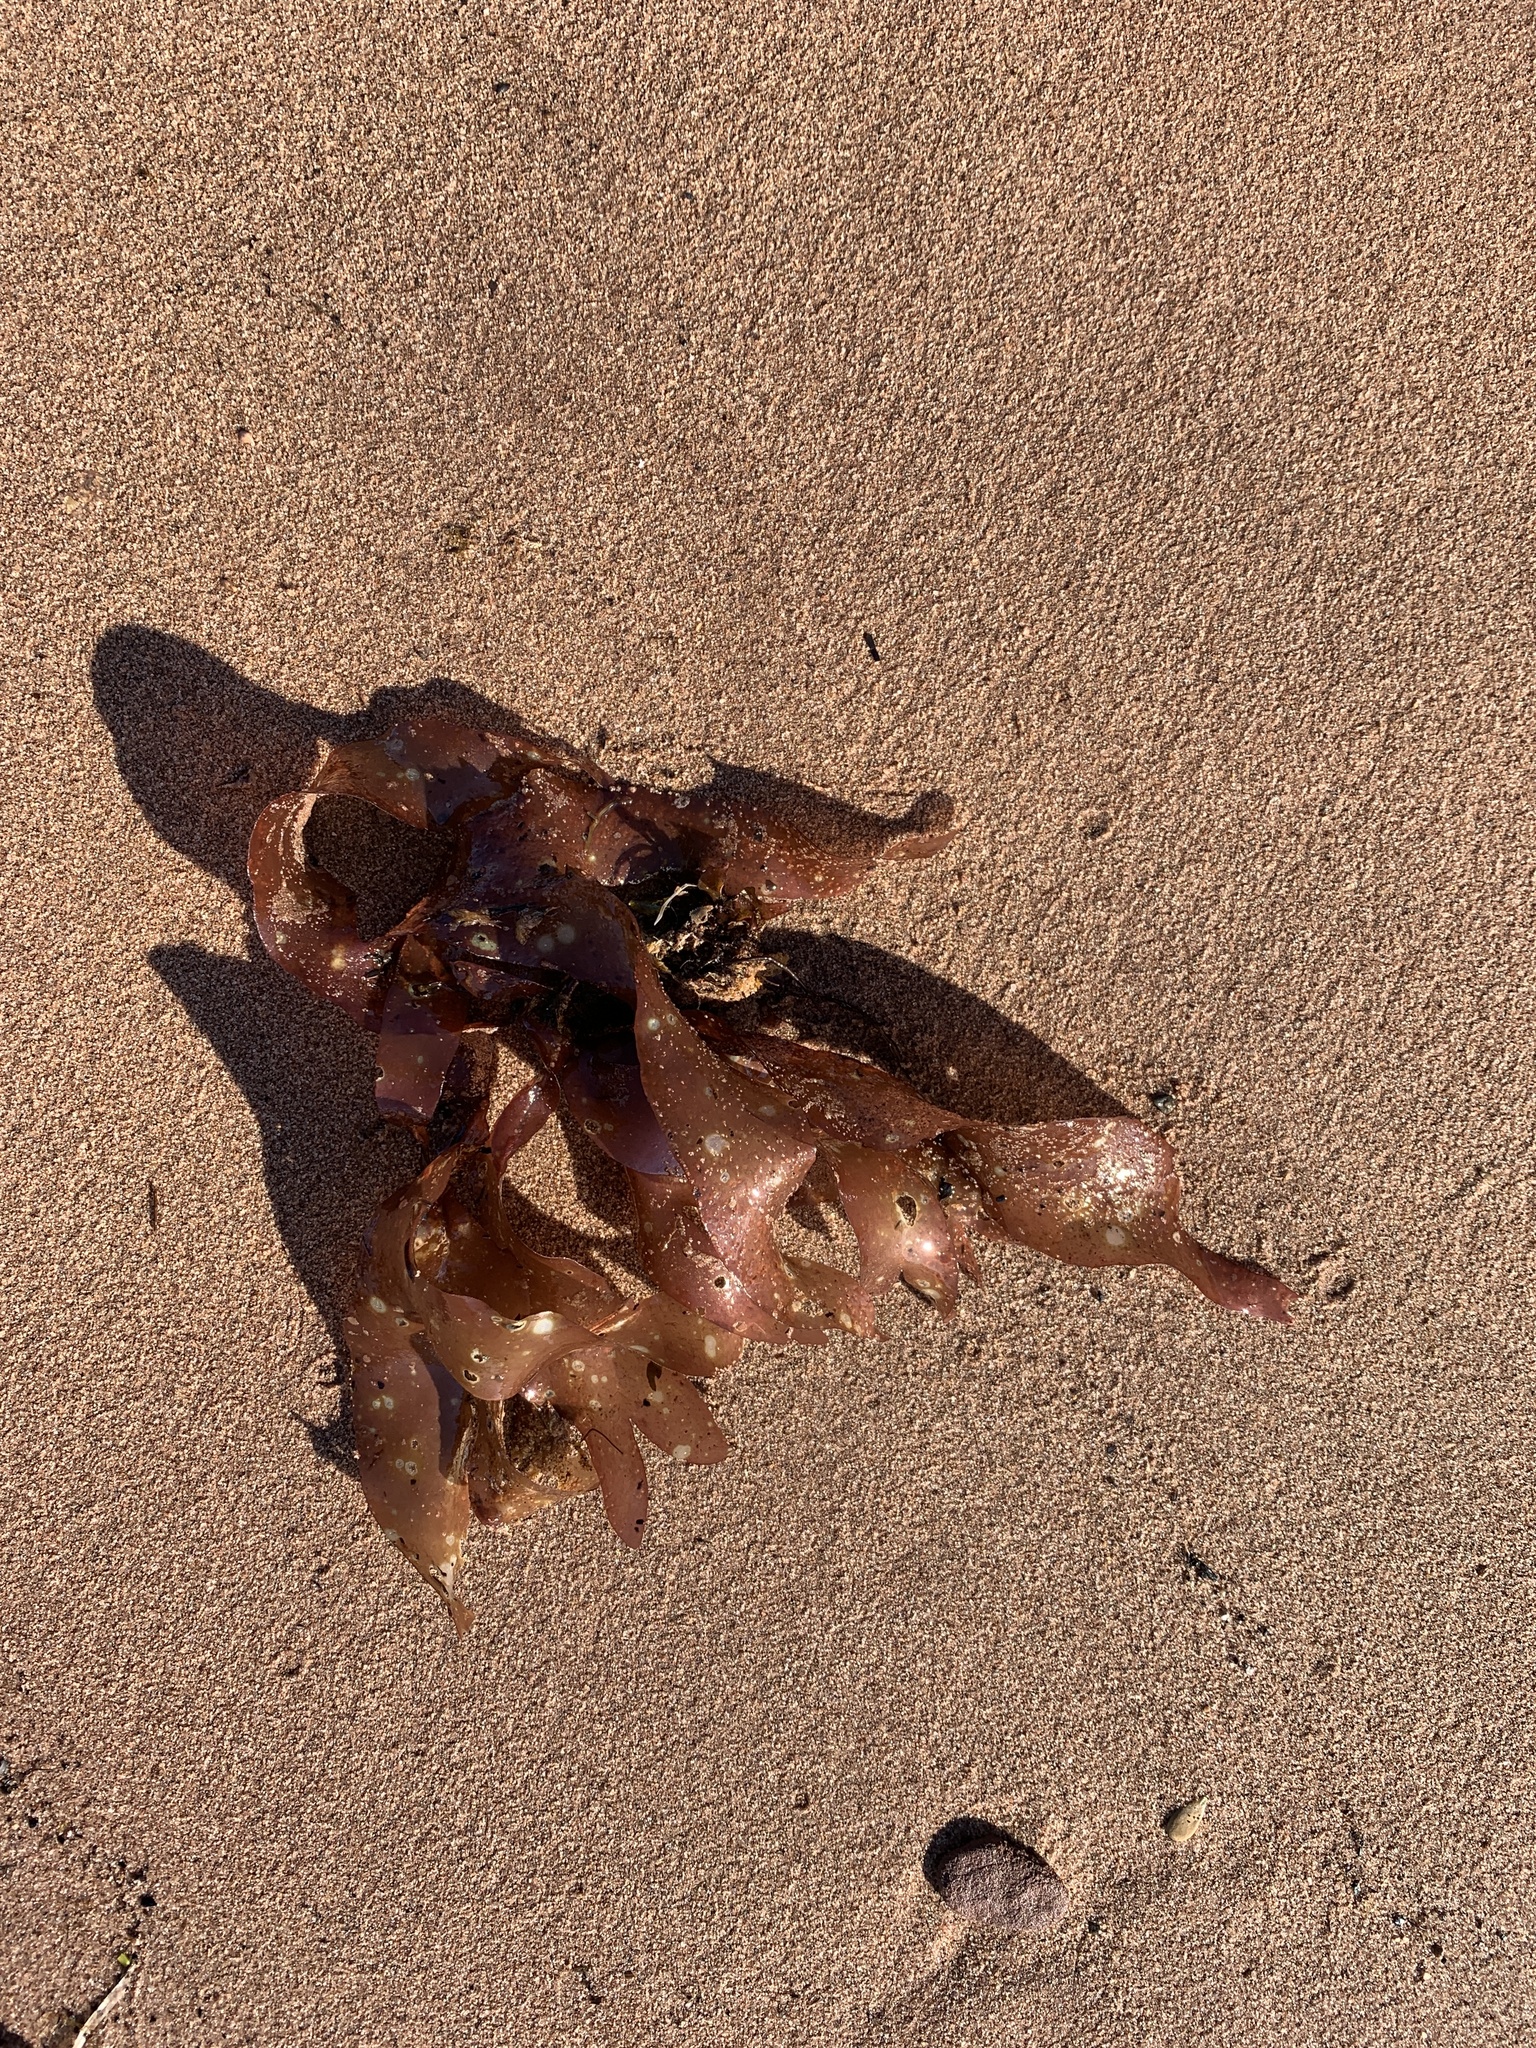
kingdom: Plantae
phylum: Rhodophyta
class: Florideophyceae
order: Palmariales
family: Palmariaceae
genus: Palmaria
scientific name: Palmaria palmata
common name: Dulse
